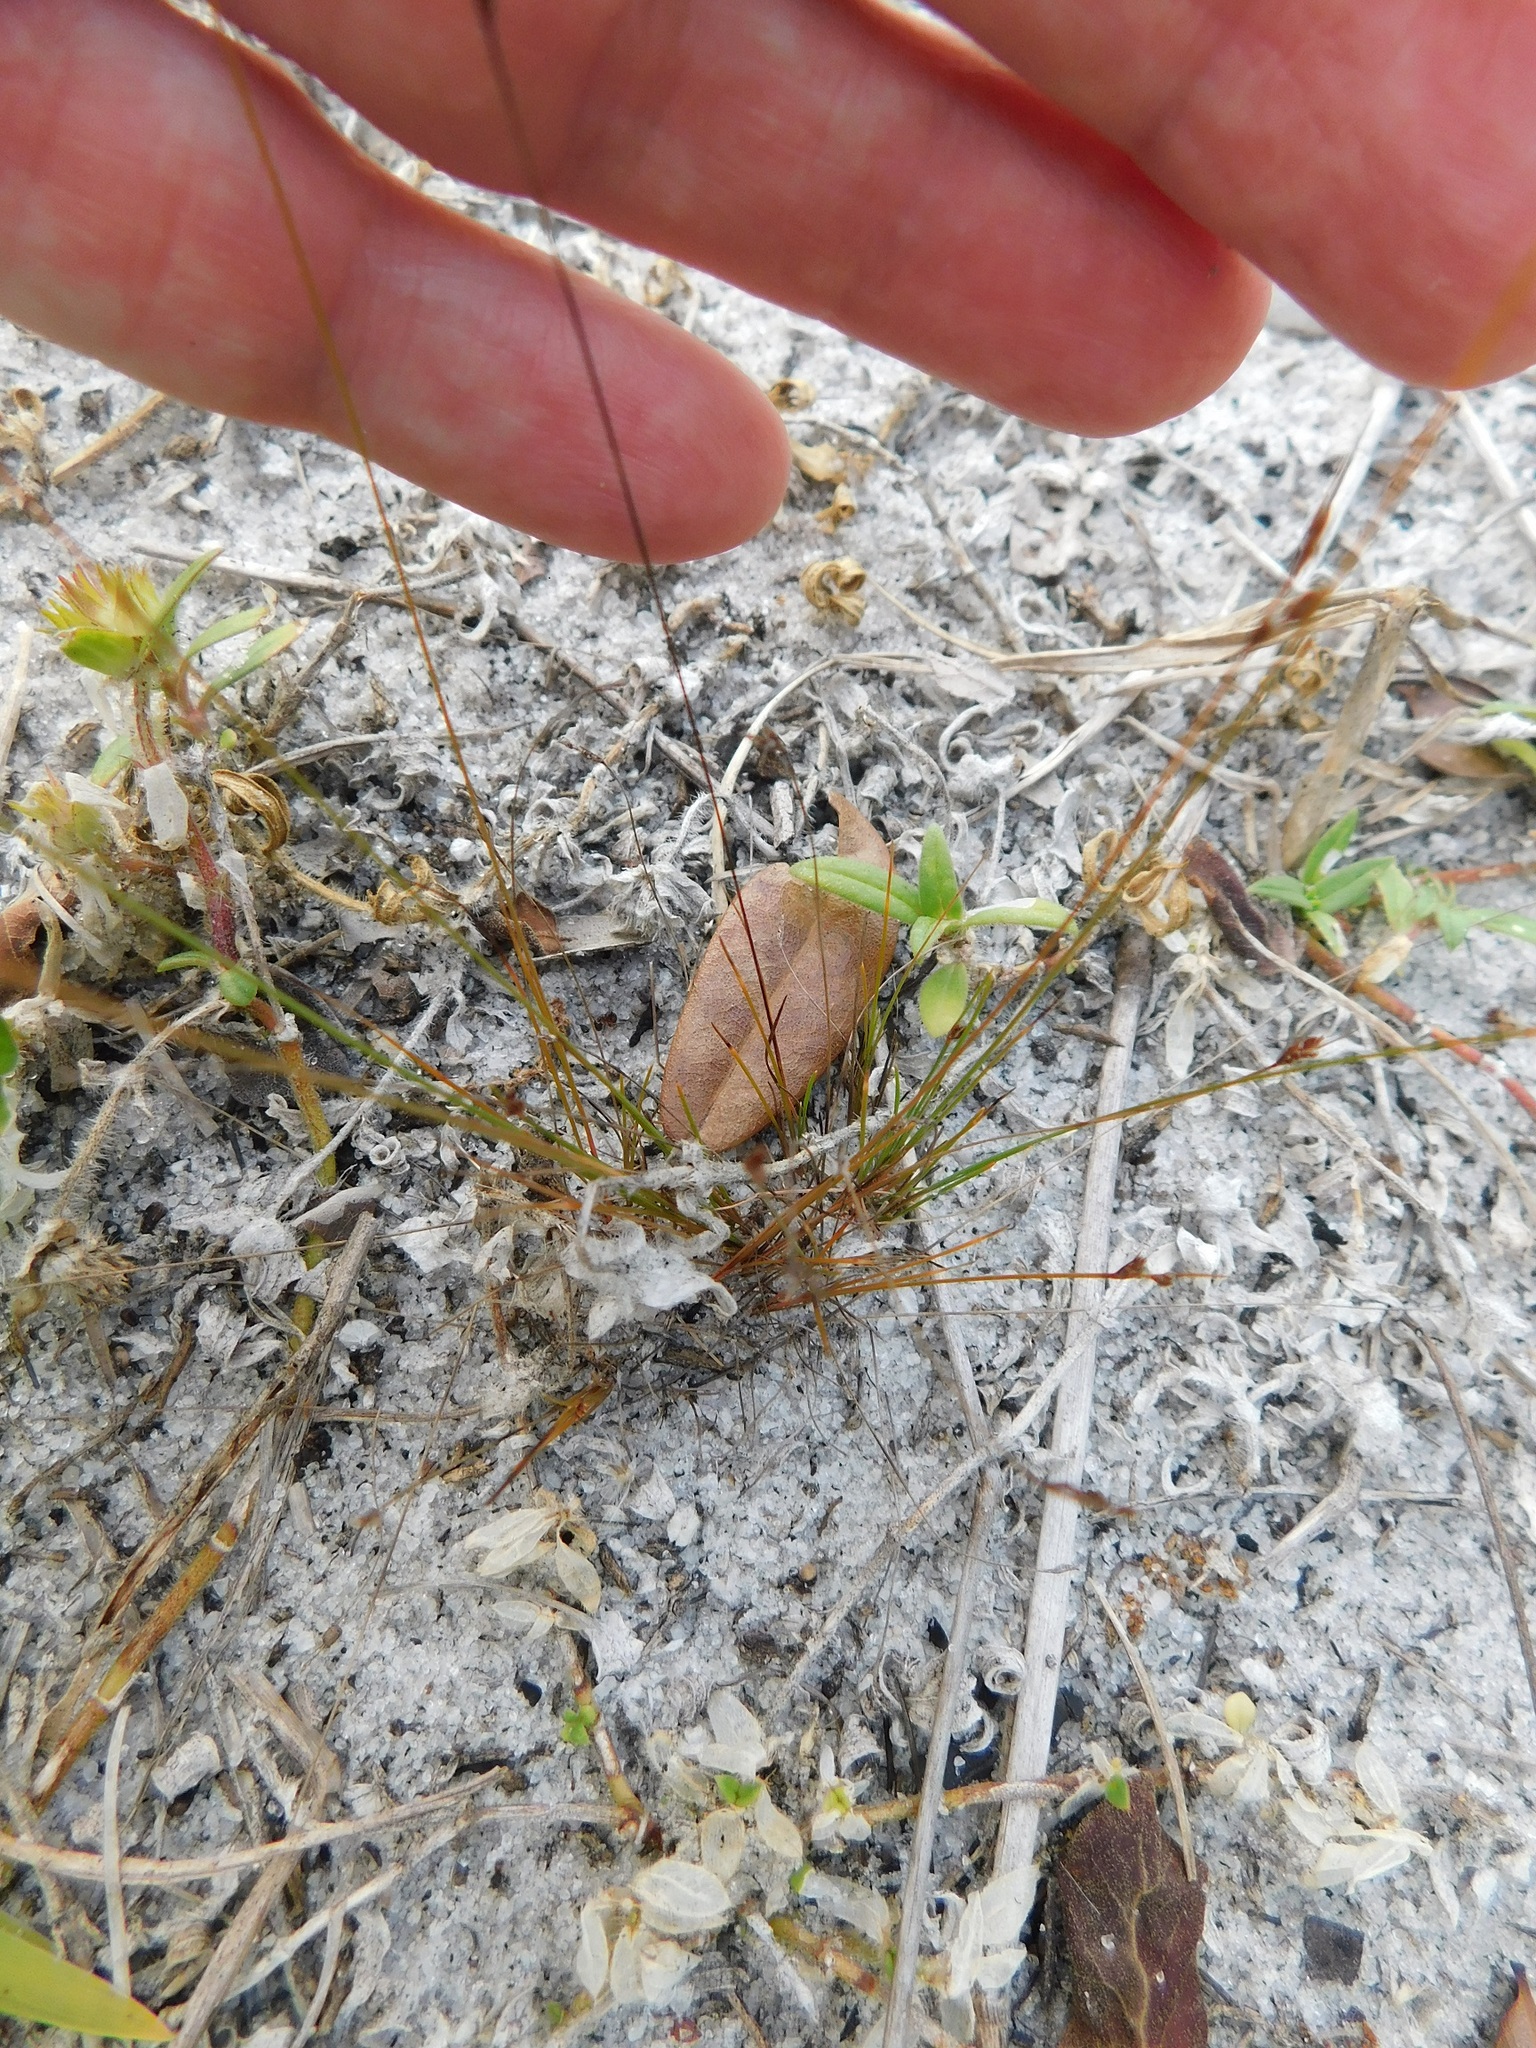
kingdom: Plantae
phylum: Tracheophyta
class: Liliopsida
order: Poales
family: Cyperaceae
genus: Bulbostylis
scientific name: Bulbostylis ciliatifolia
